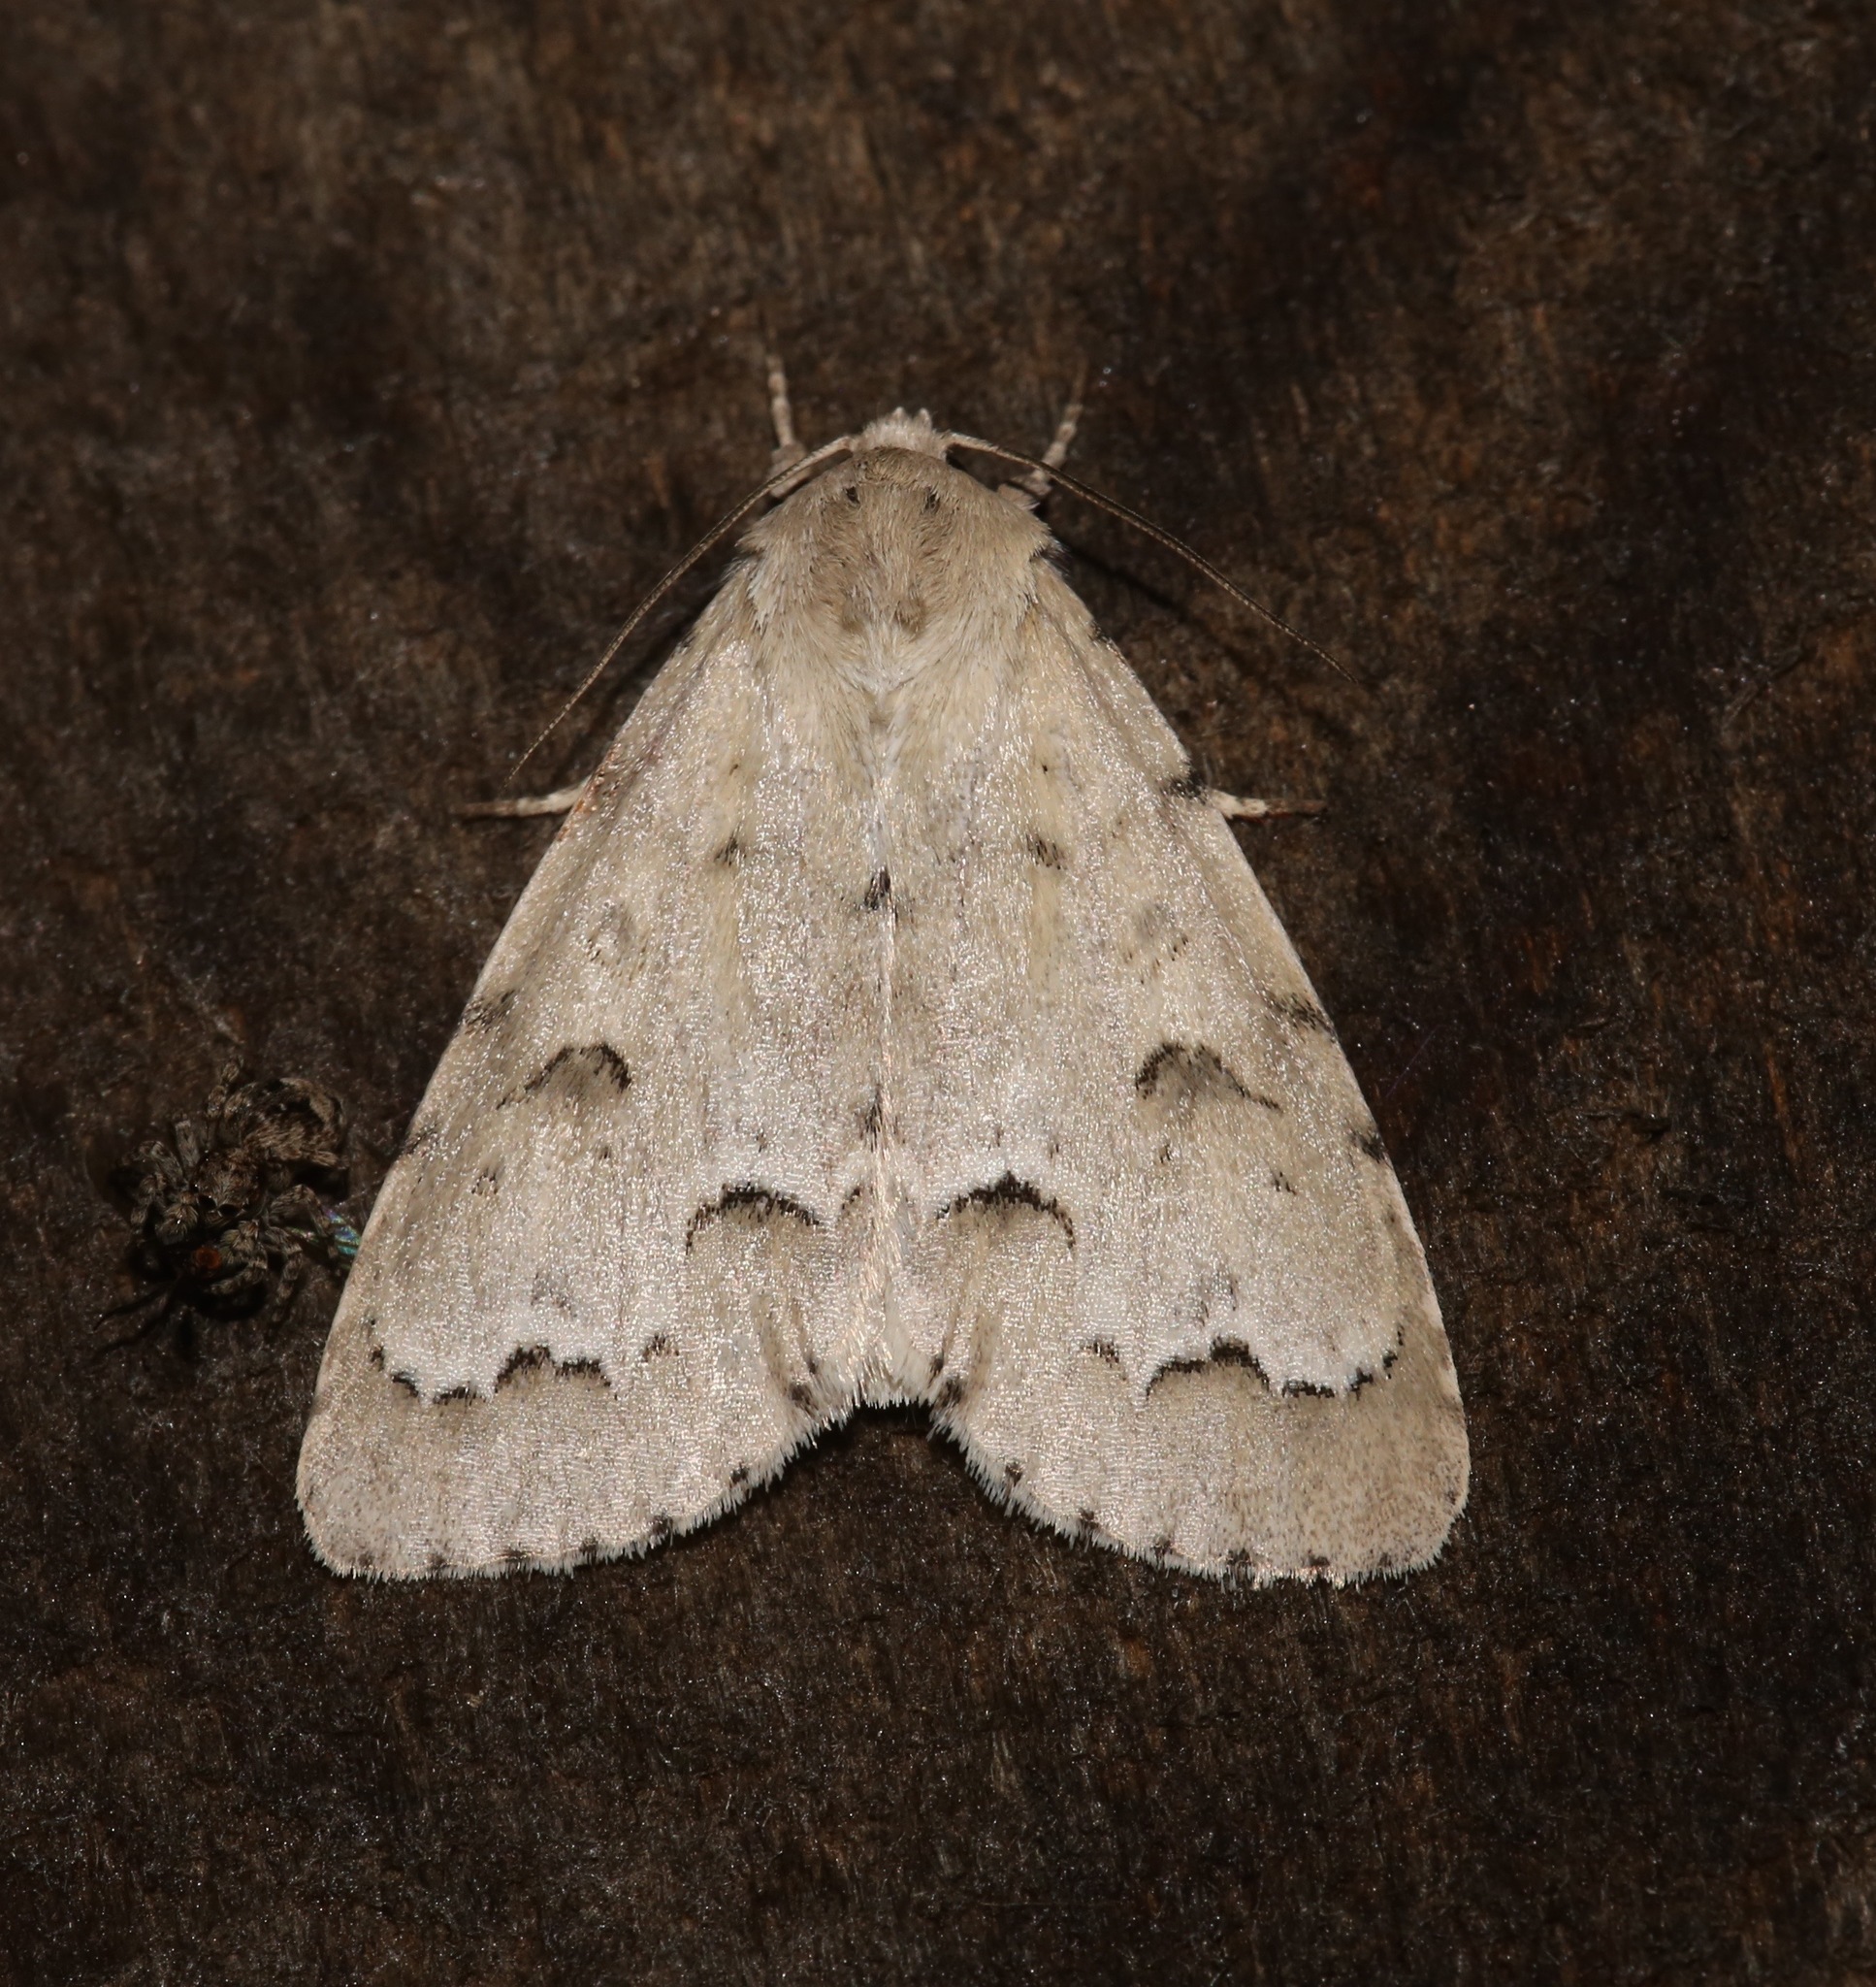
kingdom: Animalia
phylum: Arthropoda
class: Insecta
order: Lepidoptera
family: Noctuidae
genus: Acronicta
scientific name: Acronicta innotata
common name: Unmarked dagger
